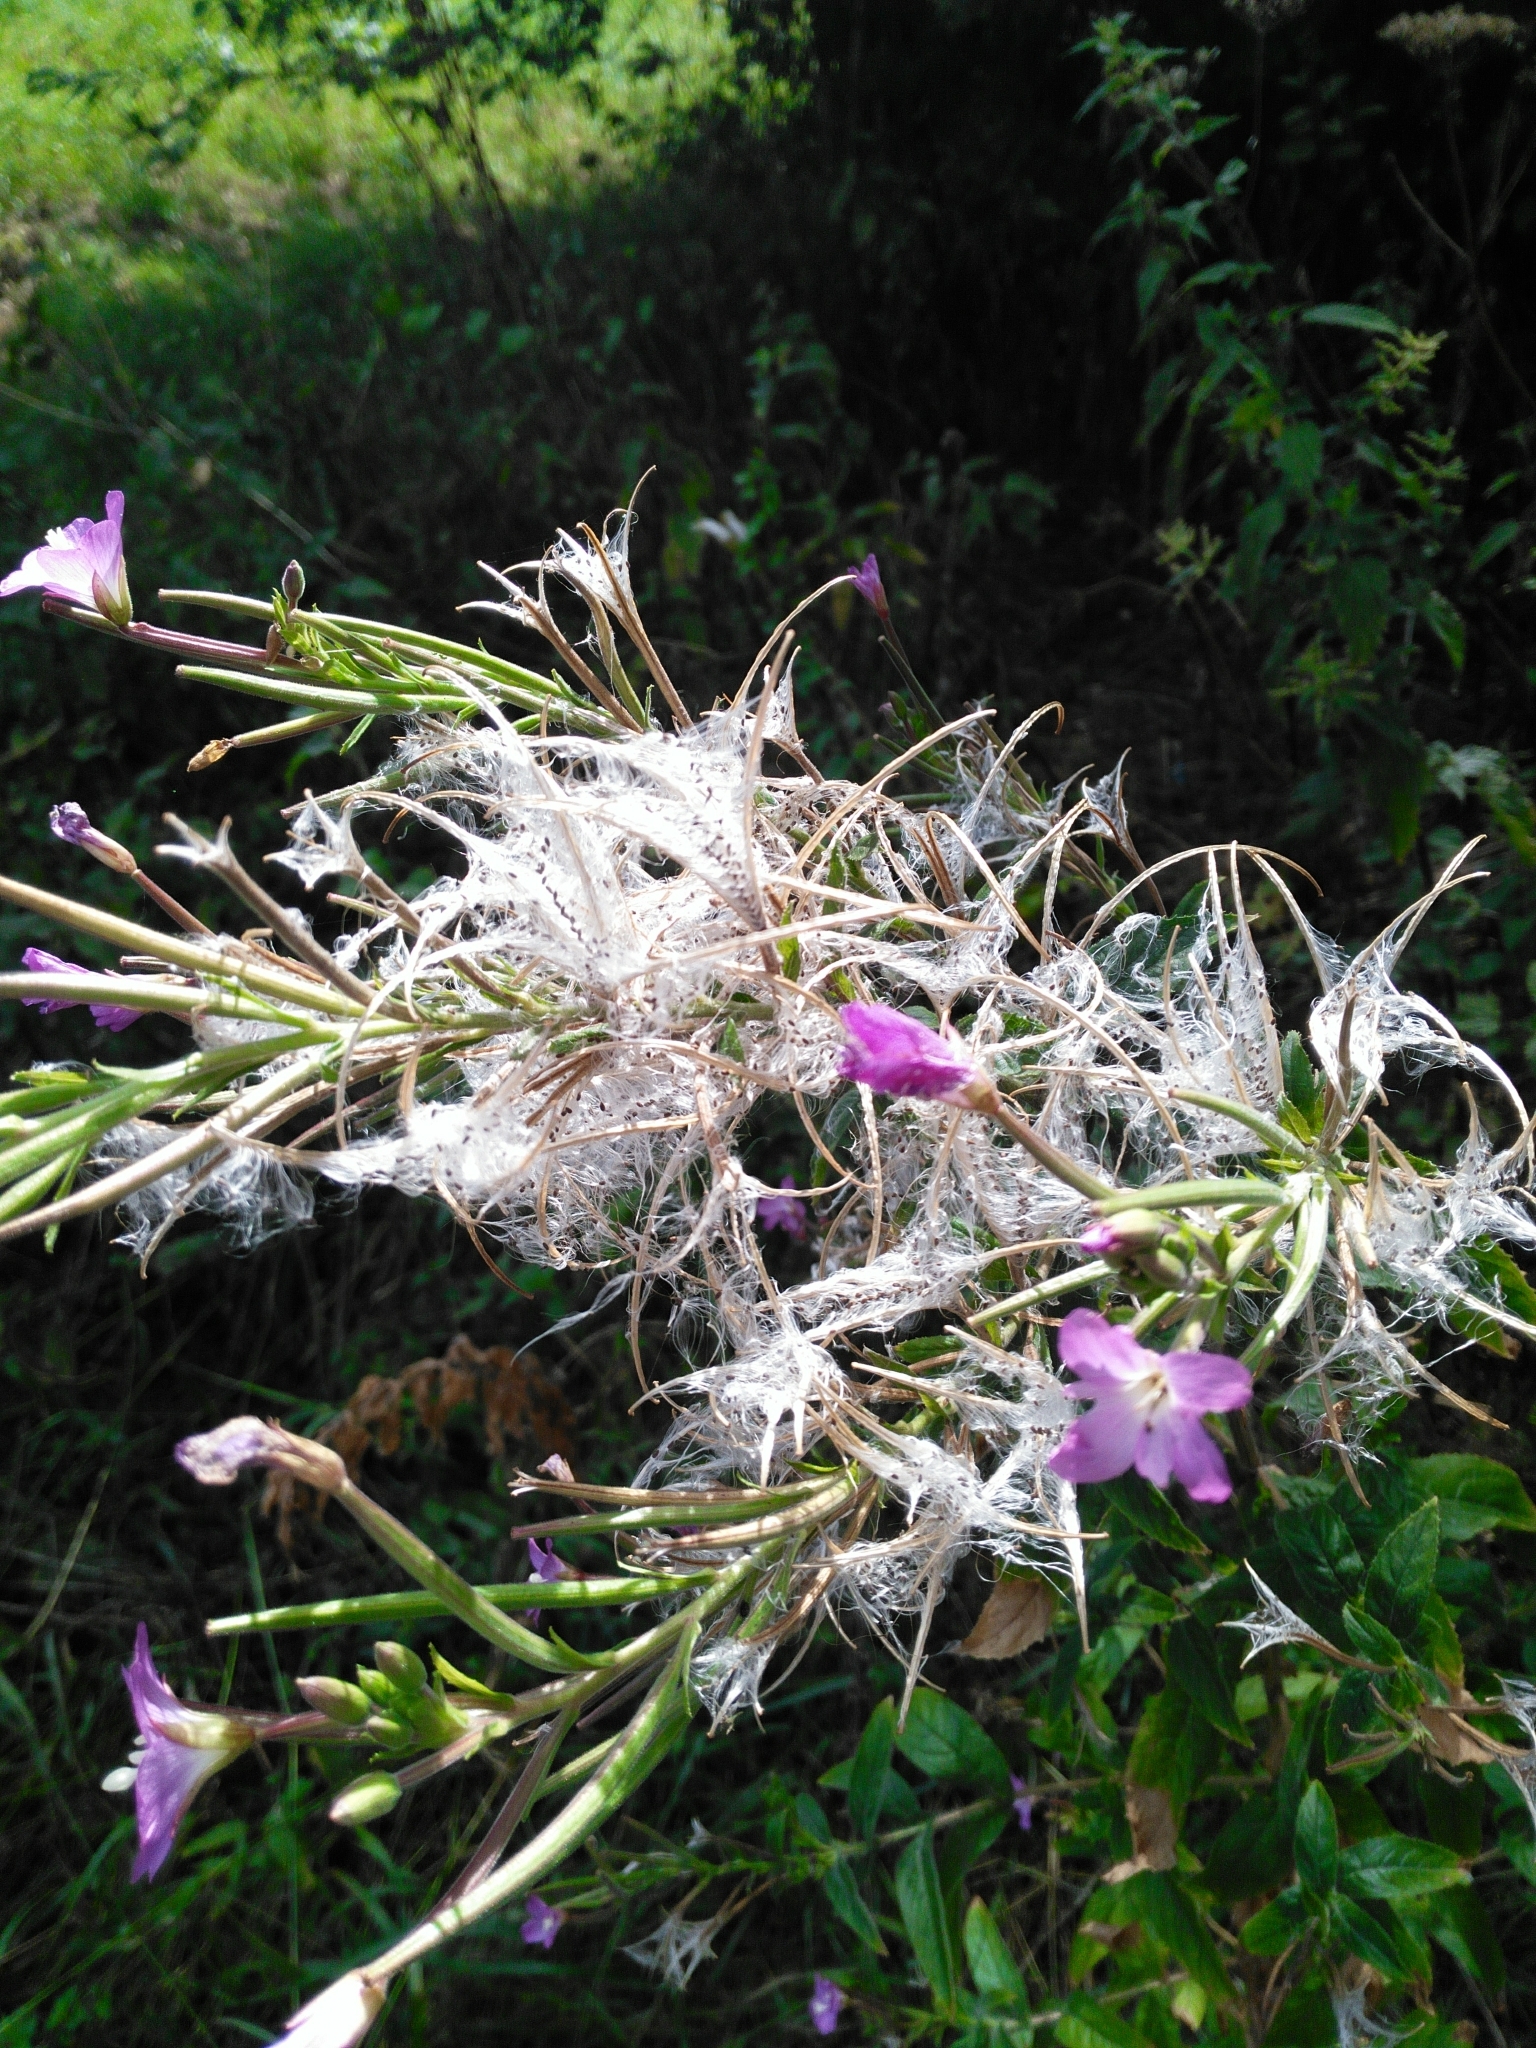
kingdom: Plantae
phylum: Tracheophyta
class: Magnoliopsida
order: Myrtales
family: Onagraceae
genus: Epilobium
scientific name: Epilobium hirsutum
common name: Great willowherb
